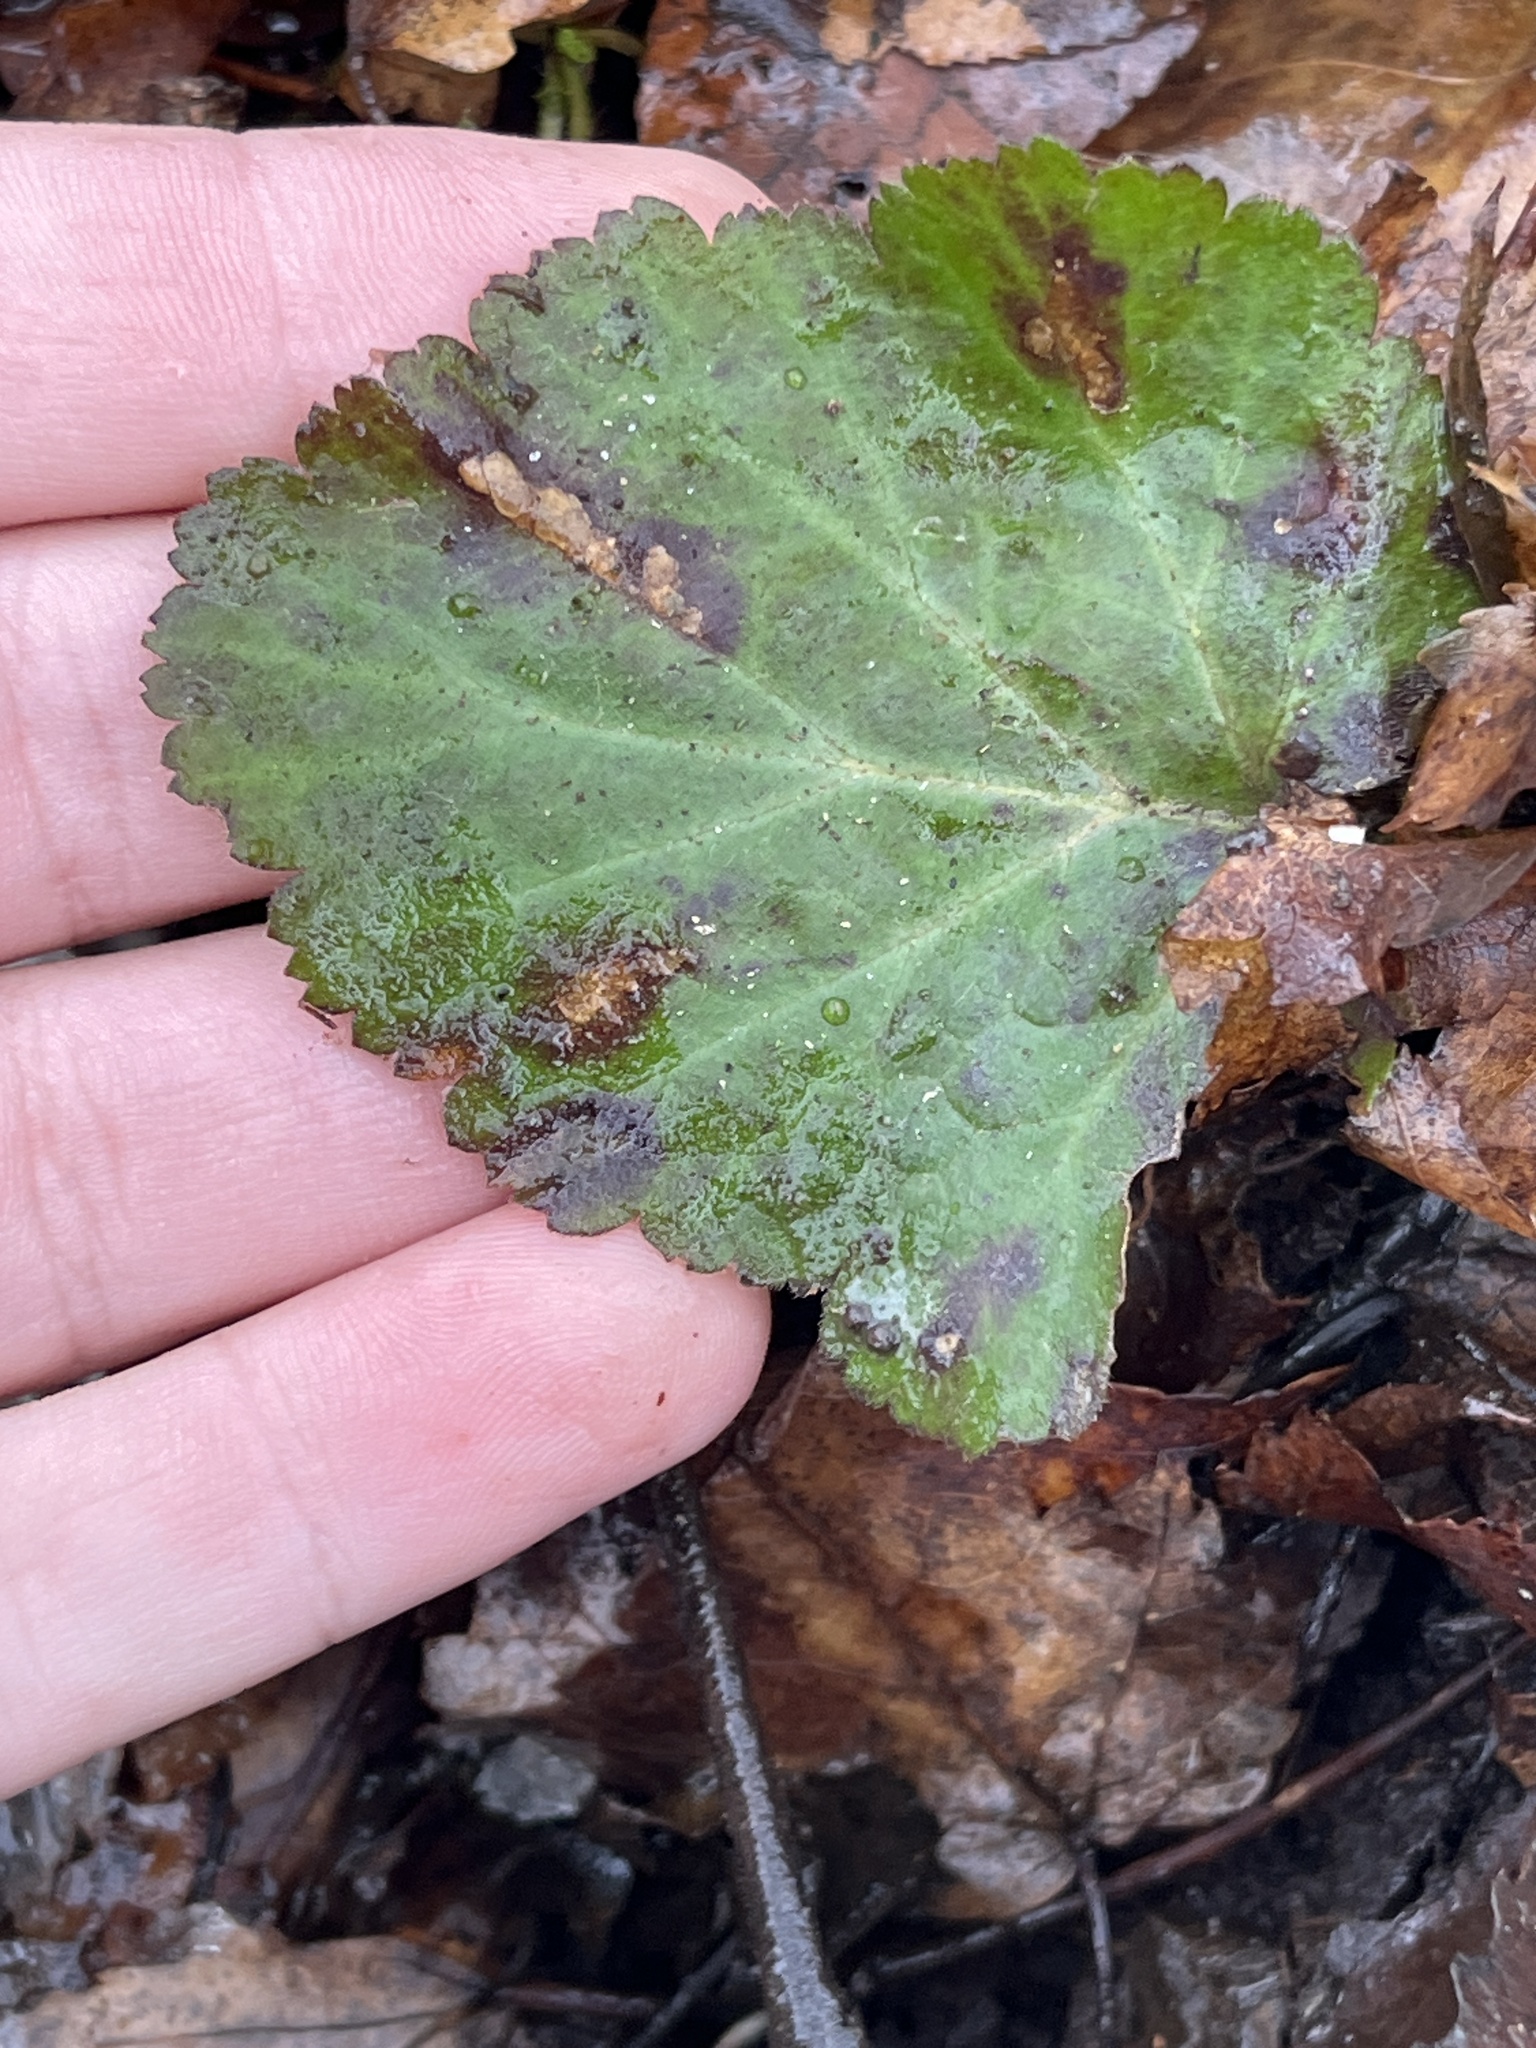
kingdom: Plantae
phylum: Tracheophyta
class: Magnoliopsida
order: Rosales
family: Rosaceae
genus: Geum
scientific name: Geum canadense
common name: White avens
